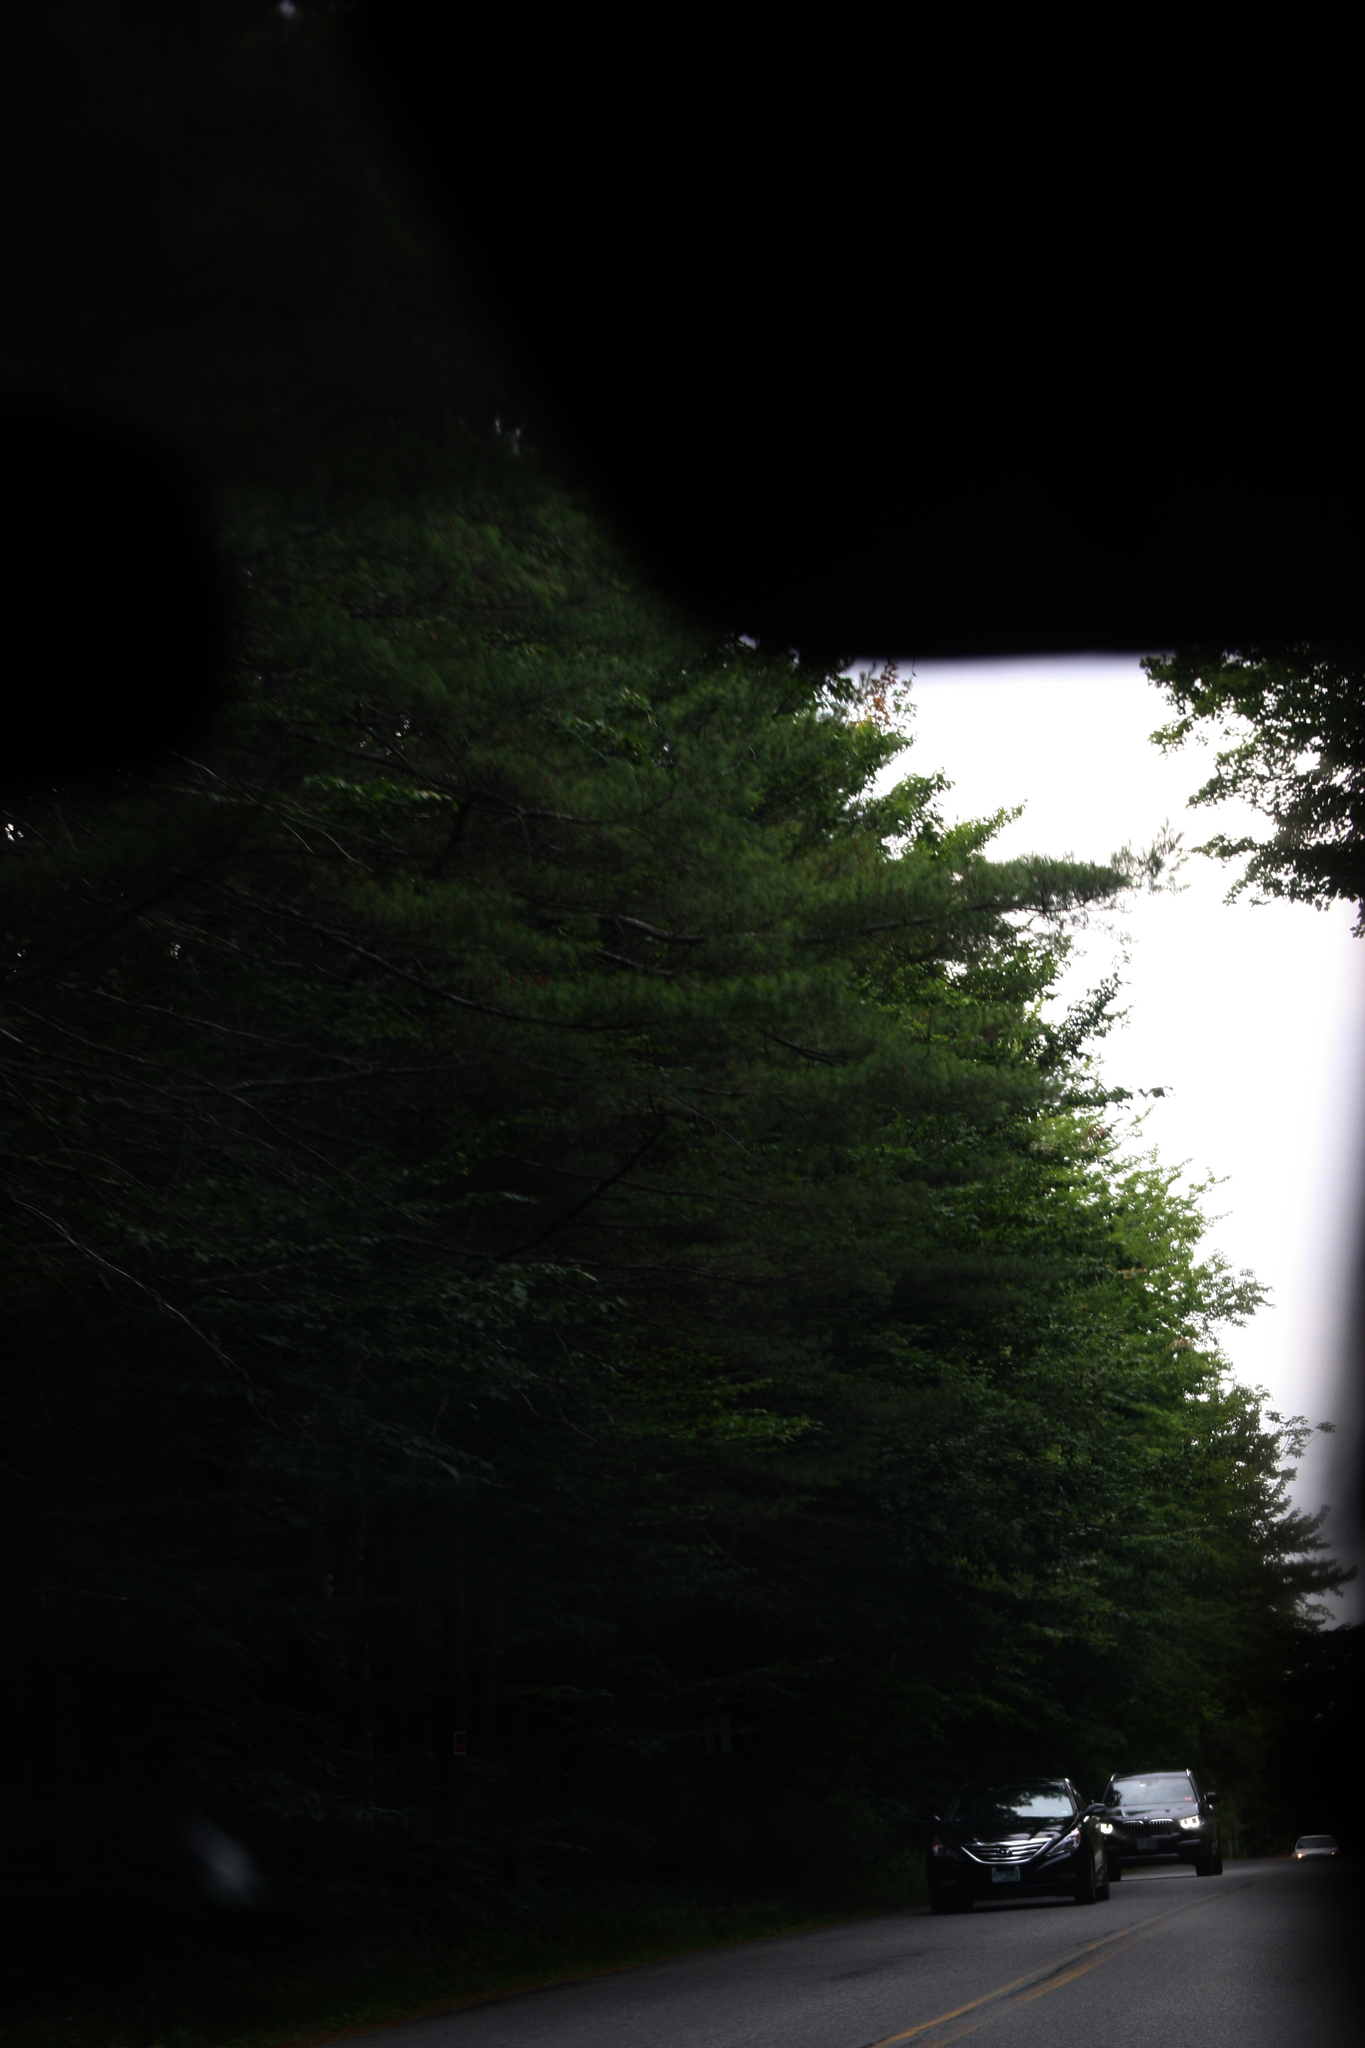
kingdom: Plantae
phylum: Tracheophyta
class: Pinopsida
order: Pinales
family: Pinaceae
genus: Pinus
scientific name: Pinus strobus
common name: Weymouth pine
